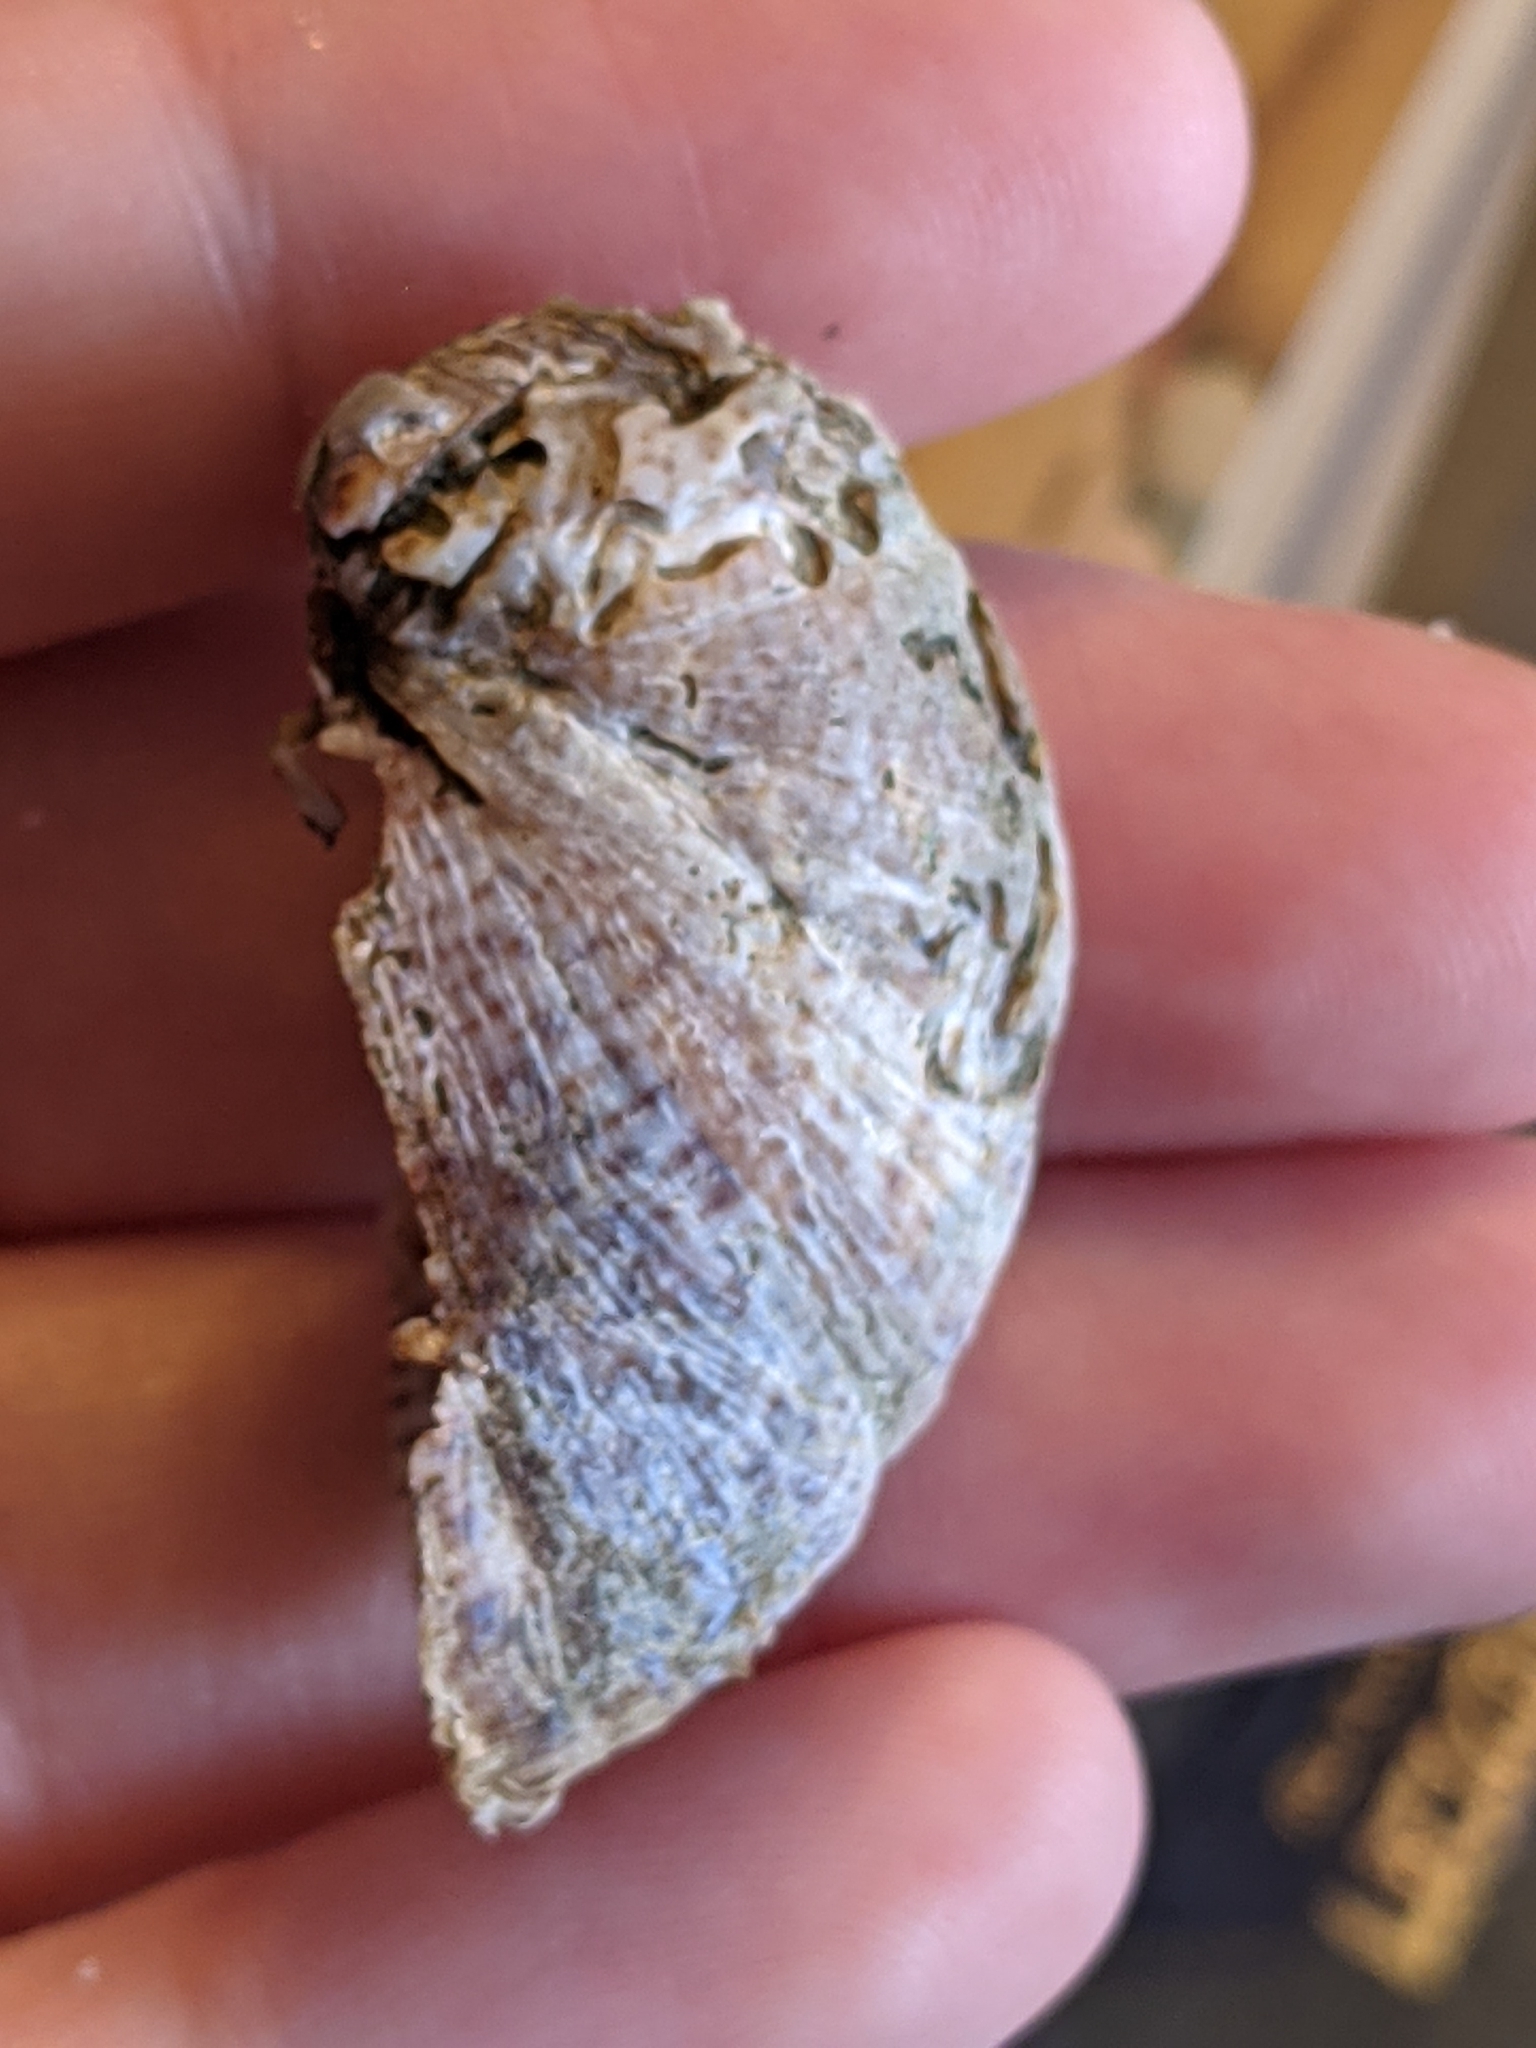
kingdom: Animalia
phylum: Mollusca
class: Gastropoda
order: Littorinimorpha
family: Calyptraeidae
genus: Crepidula
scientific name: Crepidula fornicata
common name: Slipper limpet
